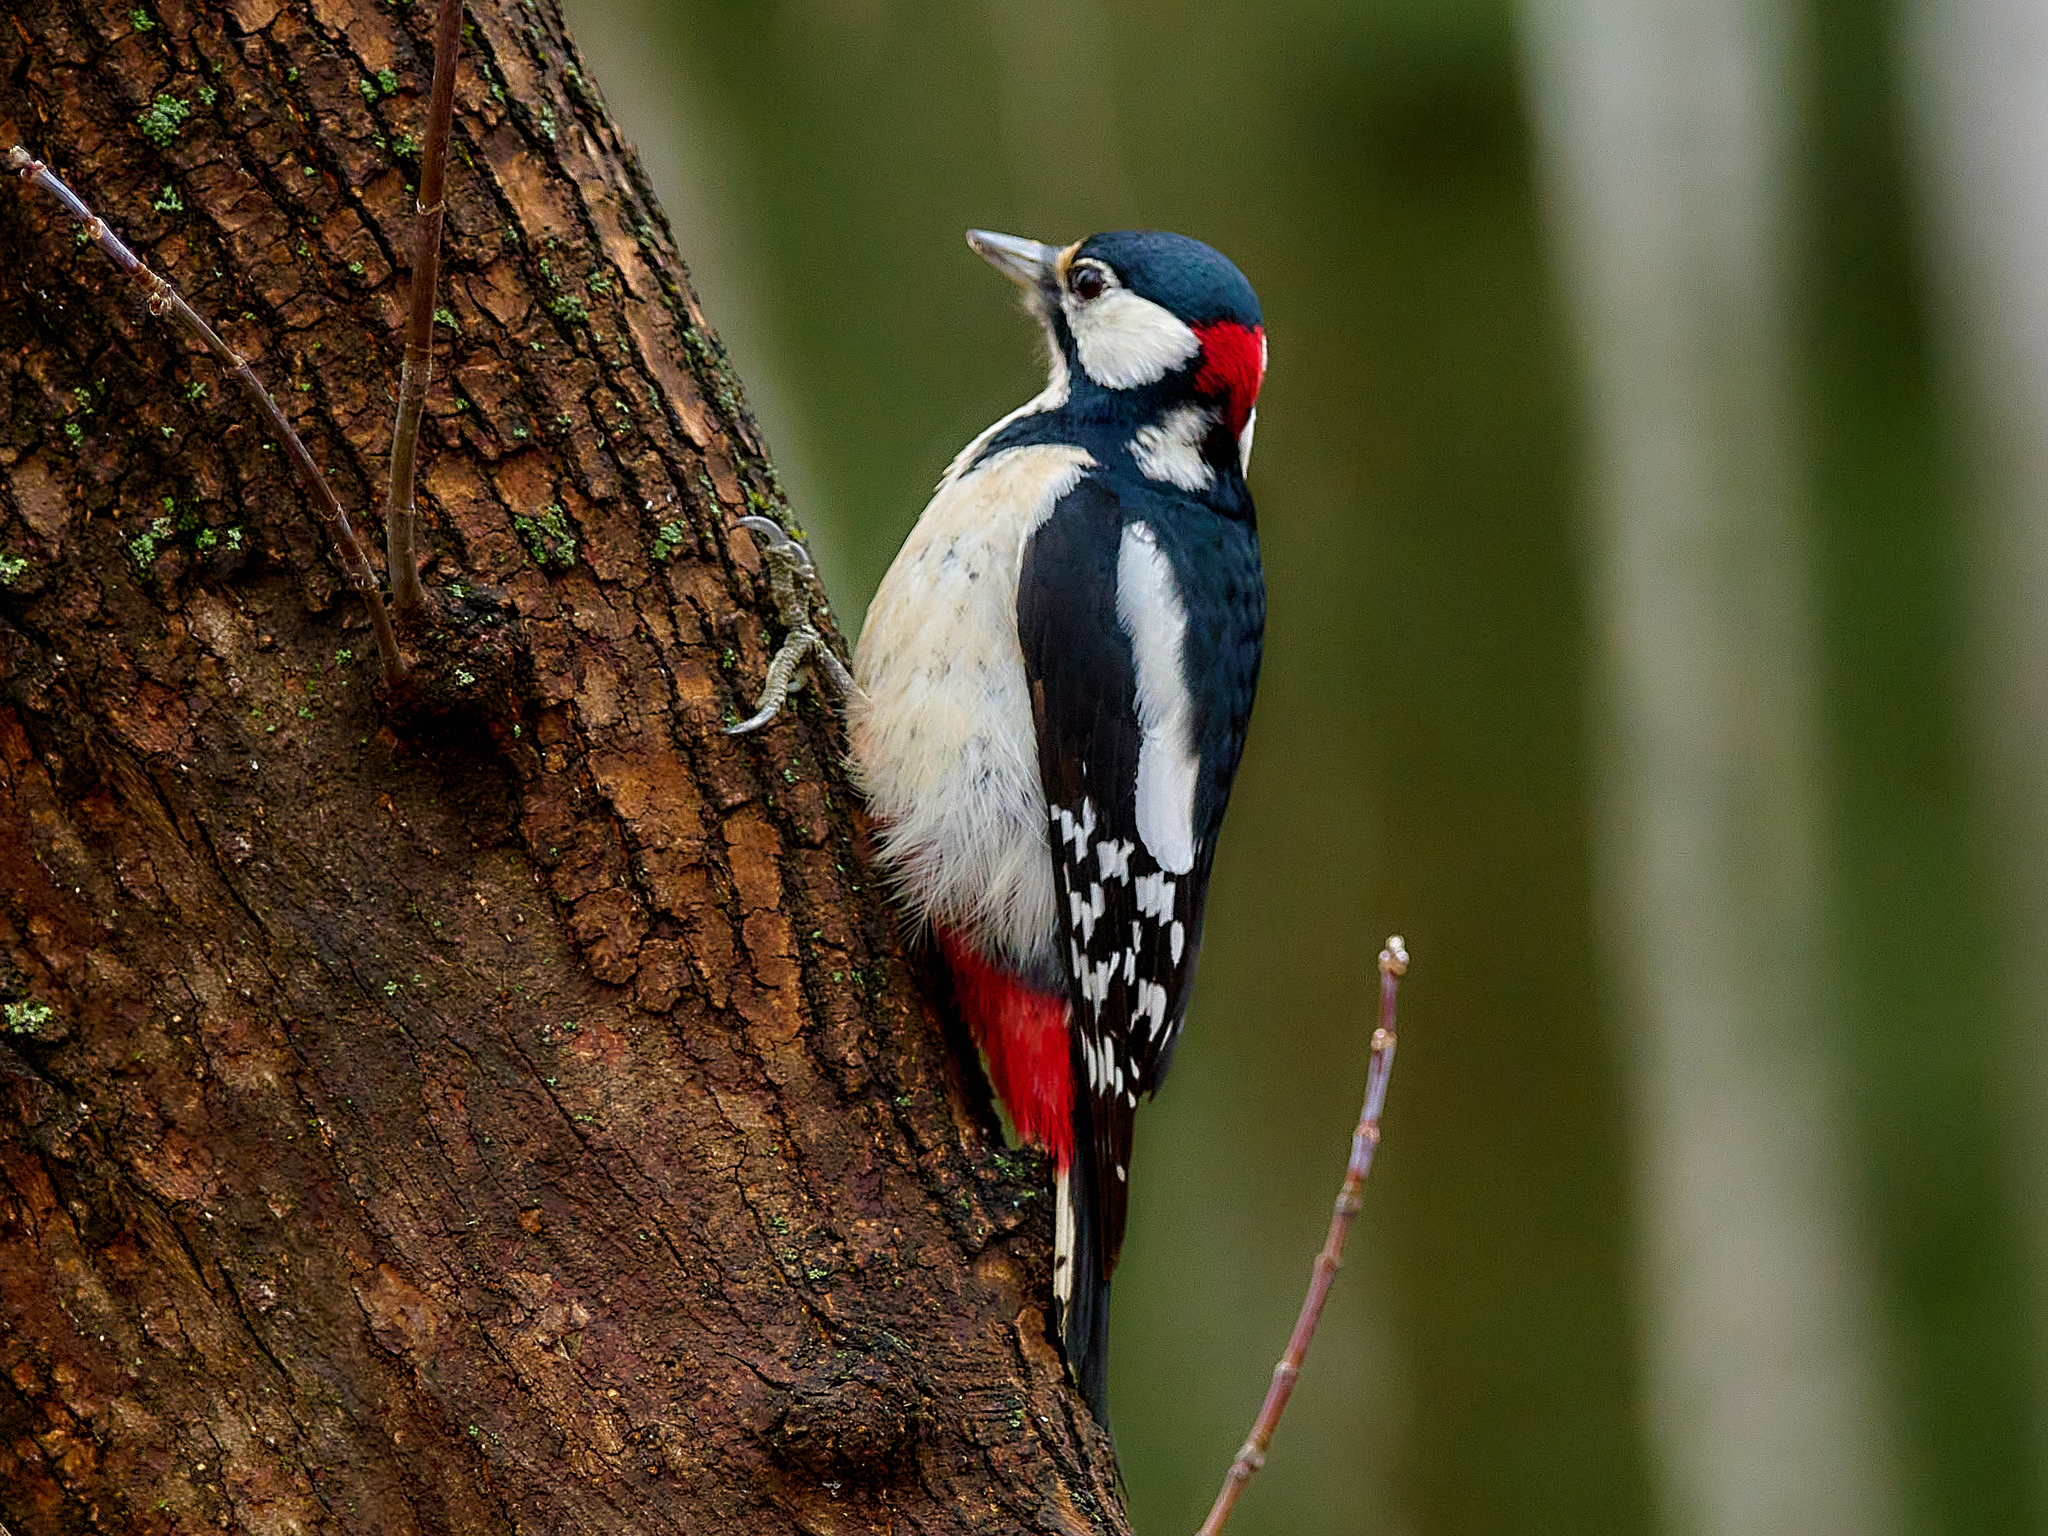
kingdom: Animalia
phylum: Chordata
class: Aves
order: Piciformes
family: Picidae
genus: Dendrocopos
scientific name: Dendrocopos major
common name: Great spotted woodpecker
